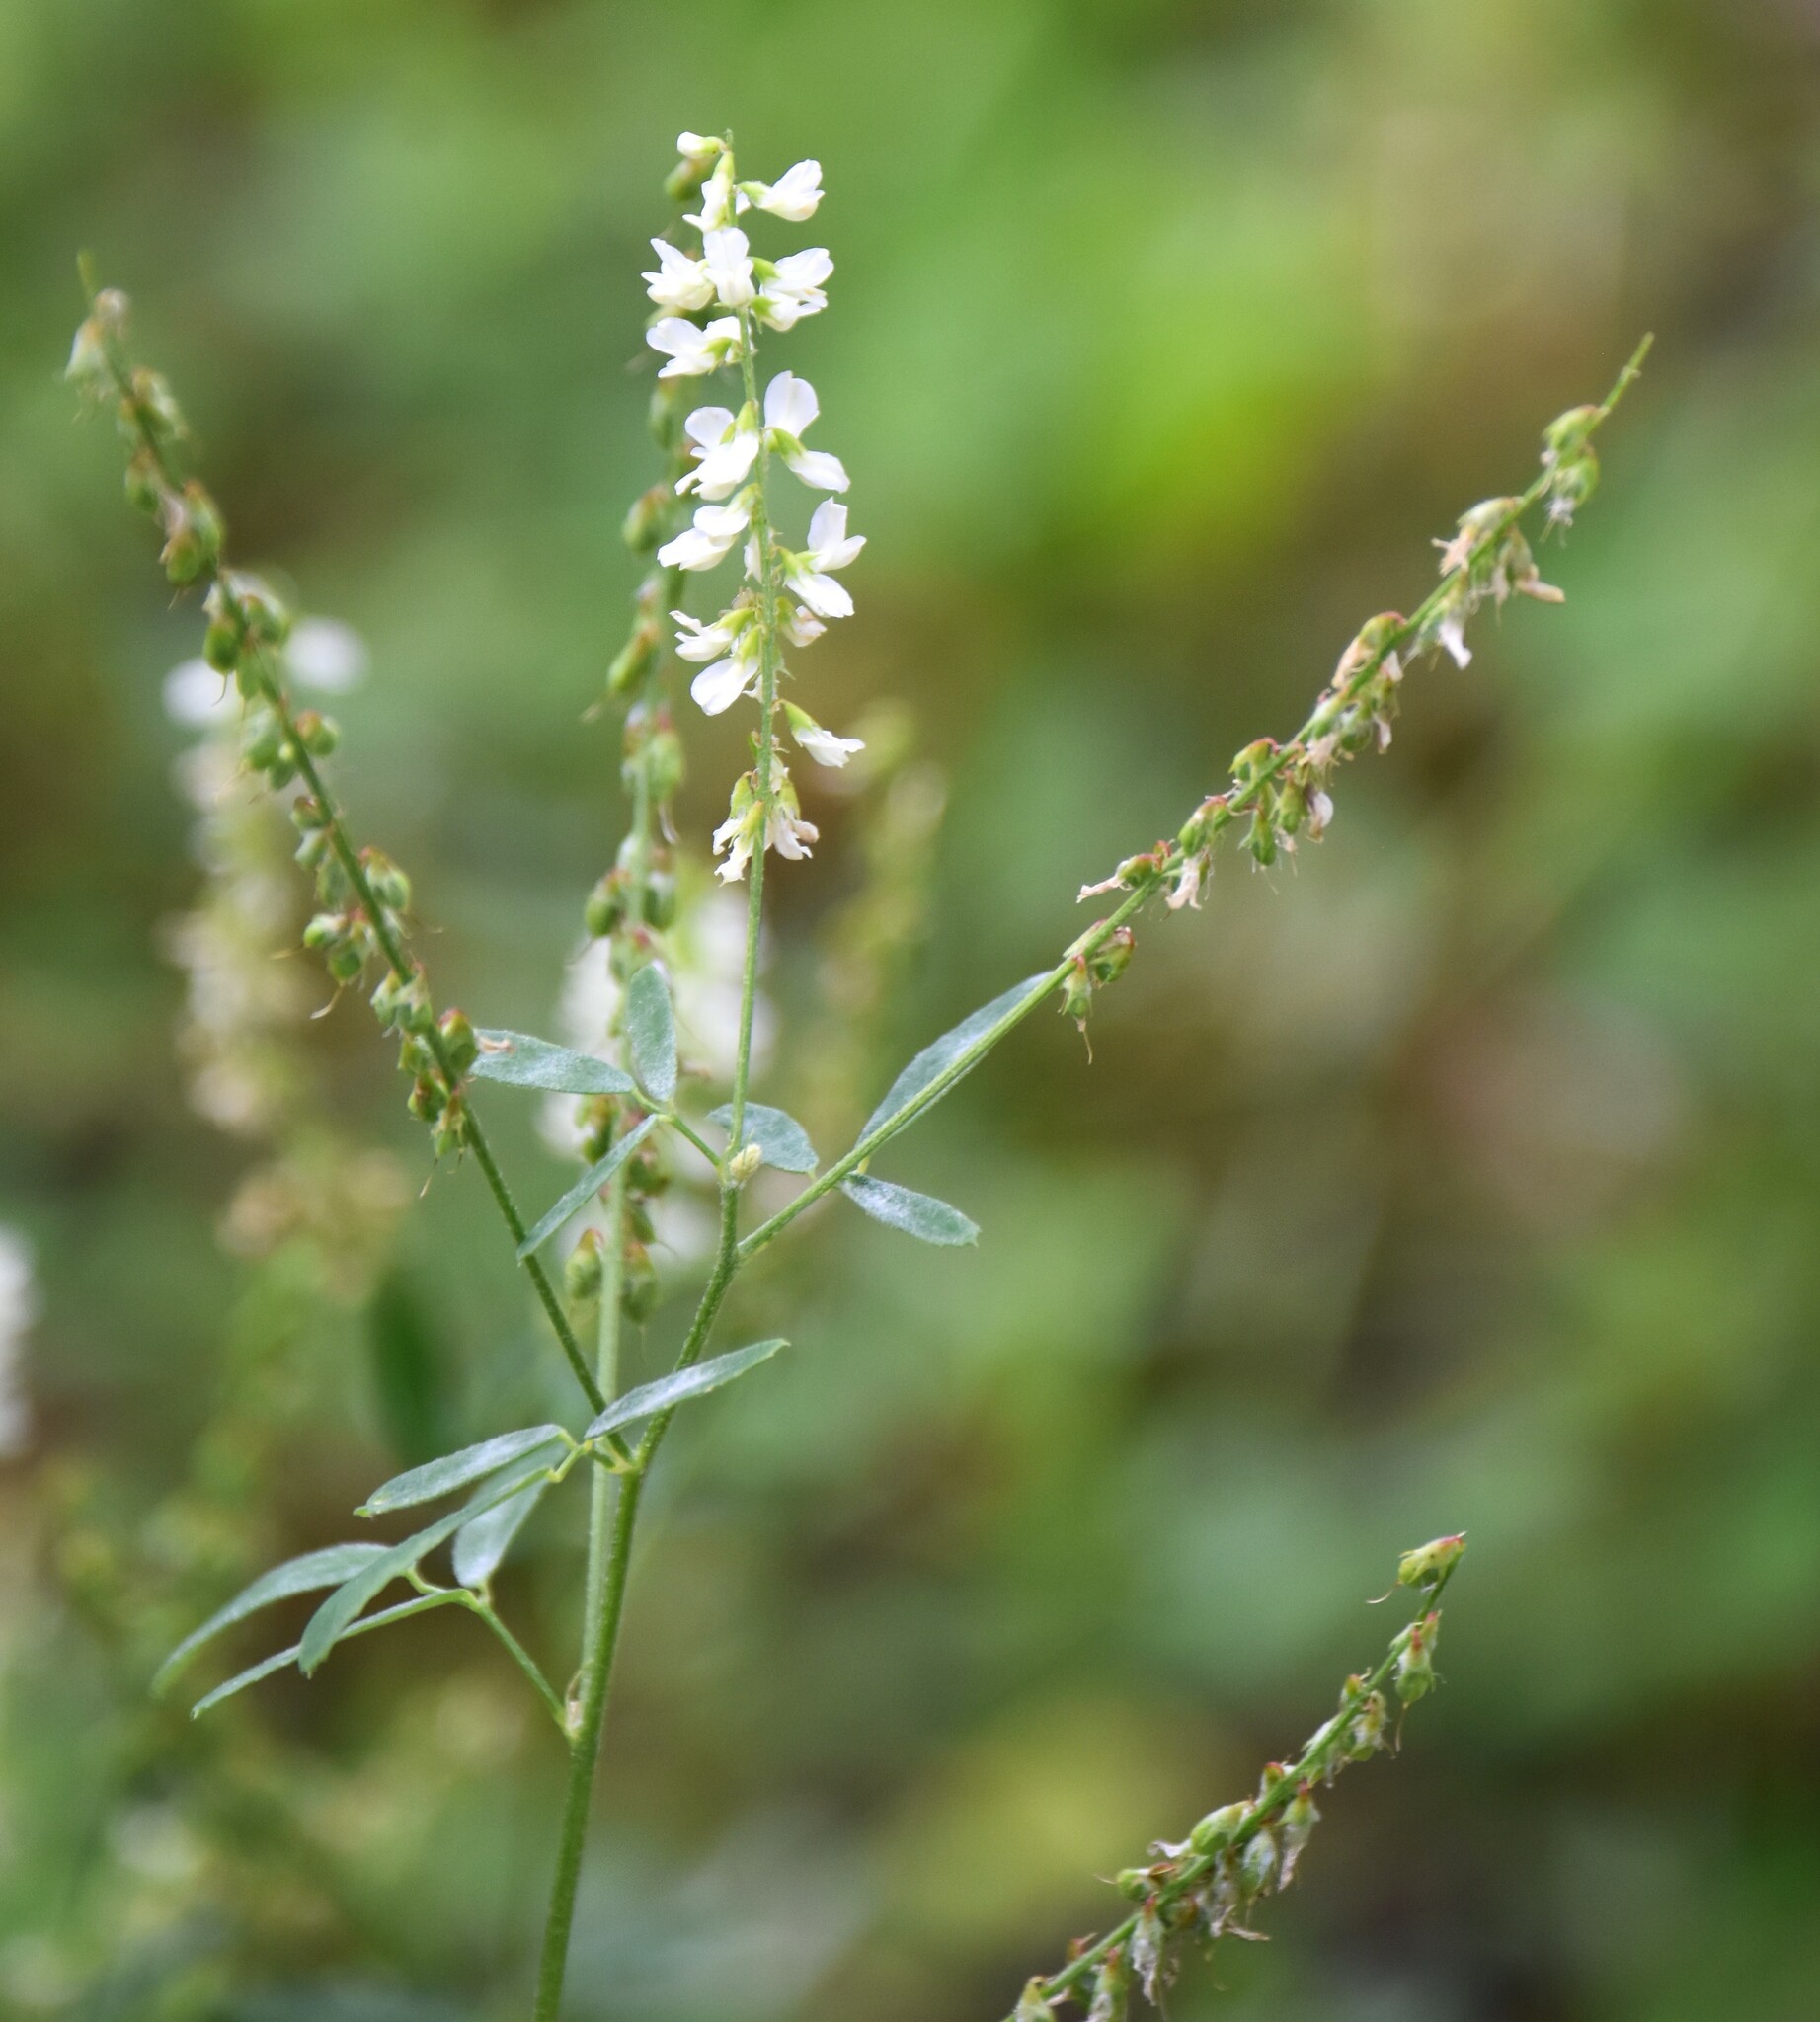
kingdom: Plantae
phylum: Tracheophyta
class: Magnoliopsida
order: Fabales
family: Fabaceae
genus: Melilotus
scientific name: Melilotus albus
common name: White melilot
